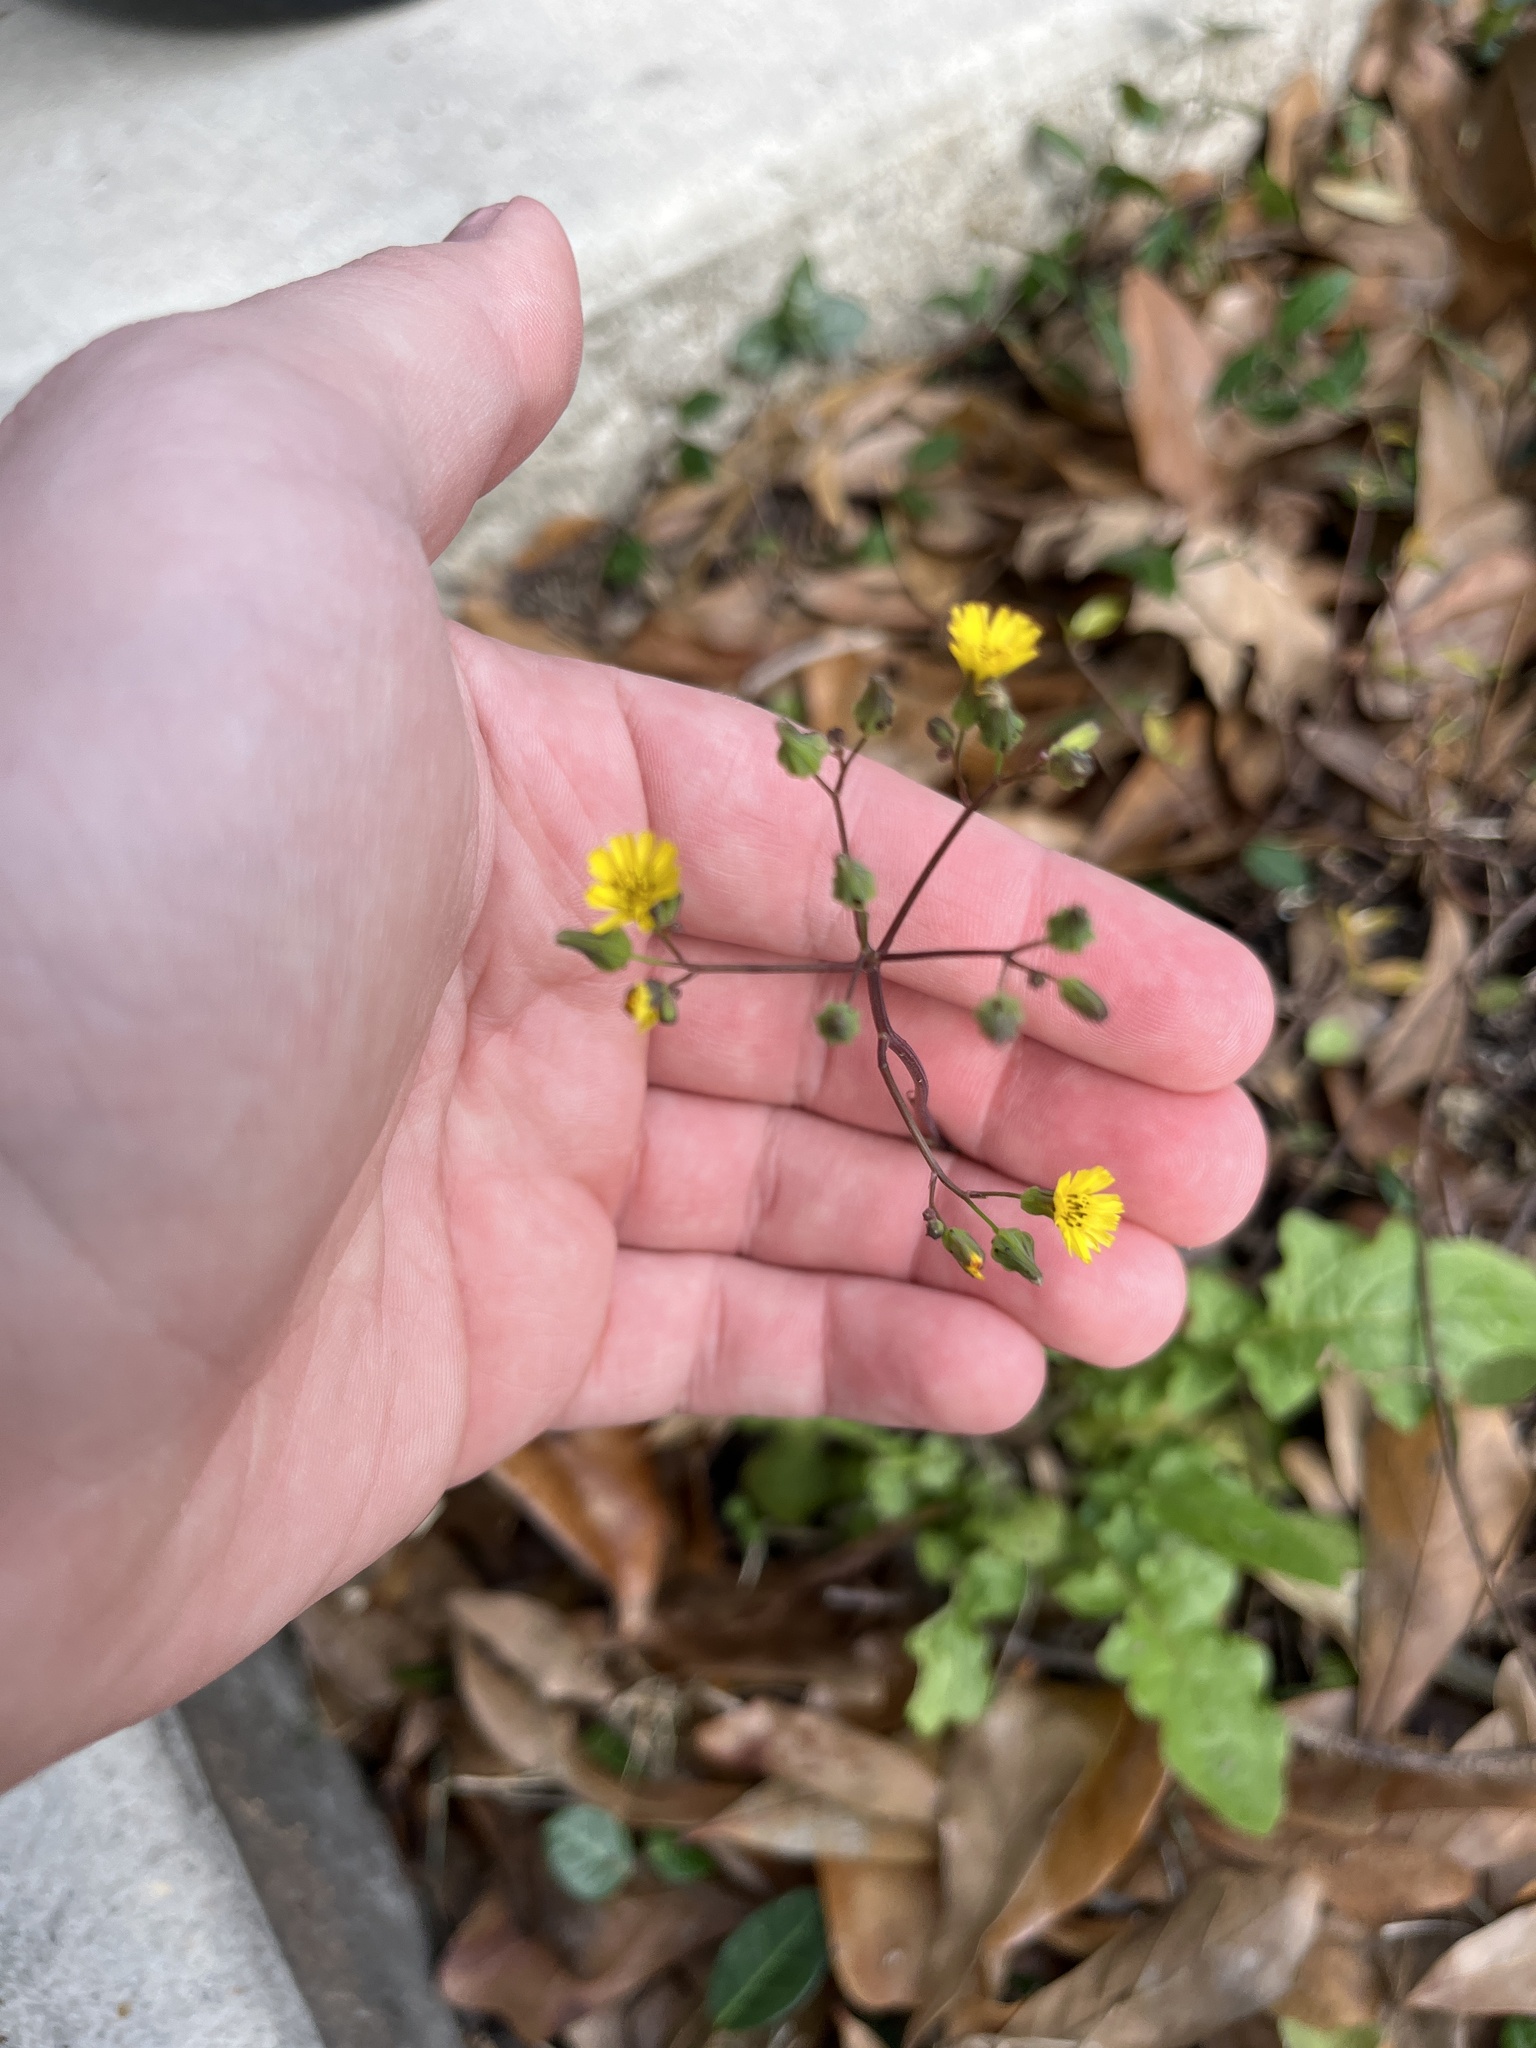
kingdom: Plantae
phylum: Tracheophyta
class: Magnoliopsida
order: Asterales
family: Asteraceae
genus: Youngia
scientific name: Youngia japonica
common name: Oriental false hawksbeard
